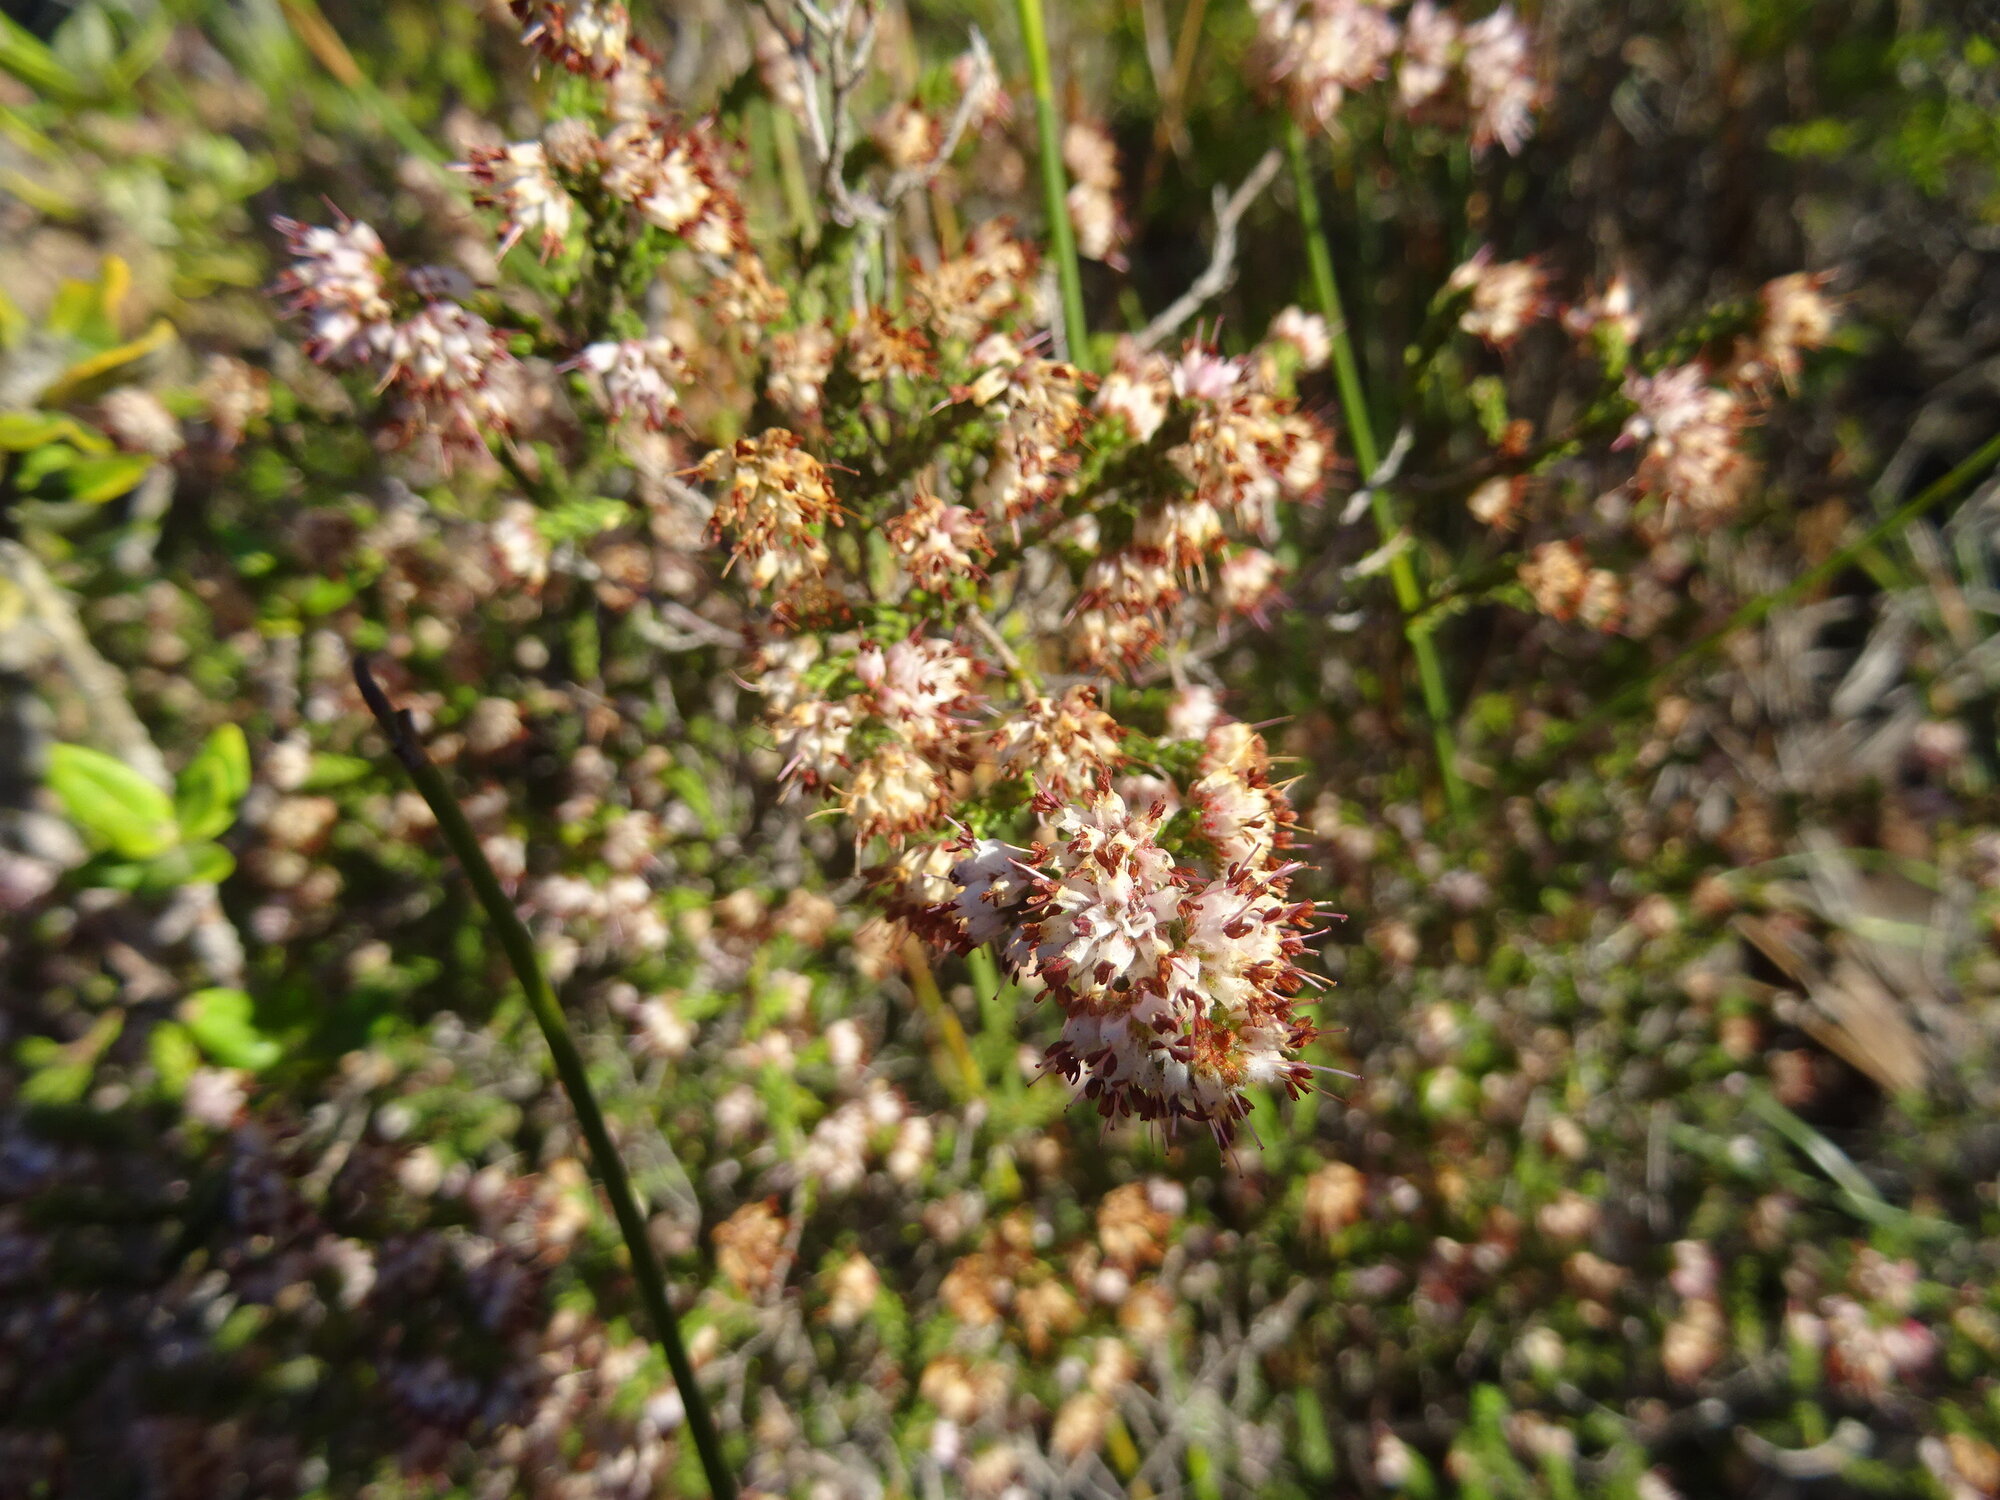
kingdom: Plantae
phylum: Tracheophyta
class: Magnoliopsida
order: Ericales
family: Ericaceae
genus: Erica
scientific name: Erica ericoides
